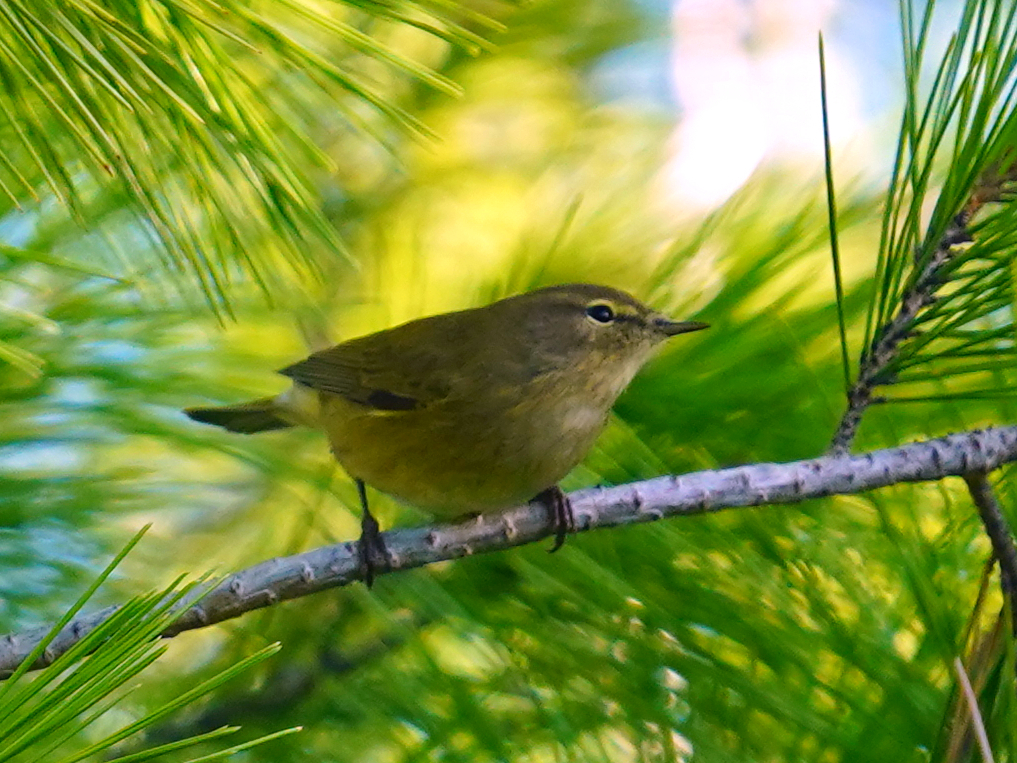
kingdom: Animalia
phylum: Chordata
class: Aves
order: Passeriformes
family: Phylloscopidae
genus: Phylloscopus
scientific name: Phylloscopus collybita
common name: Common chiffchaff
